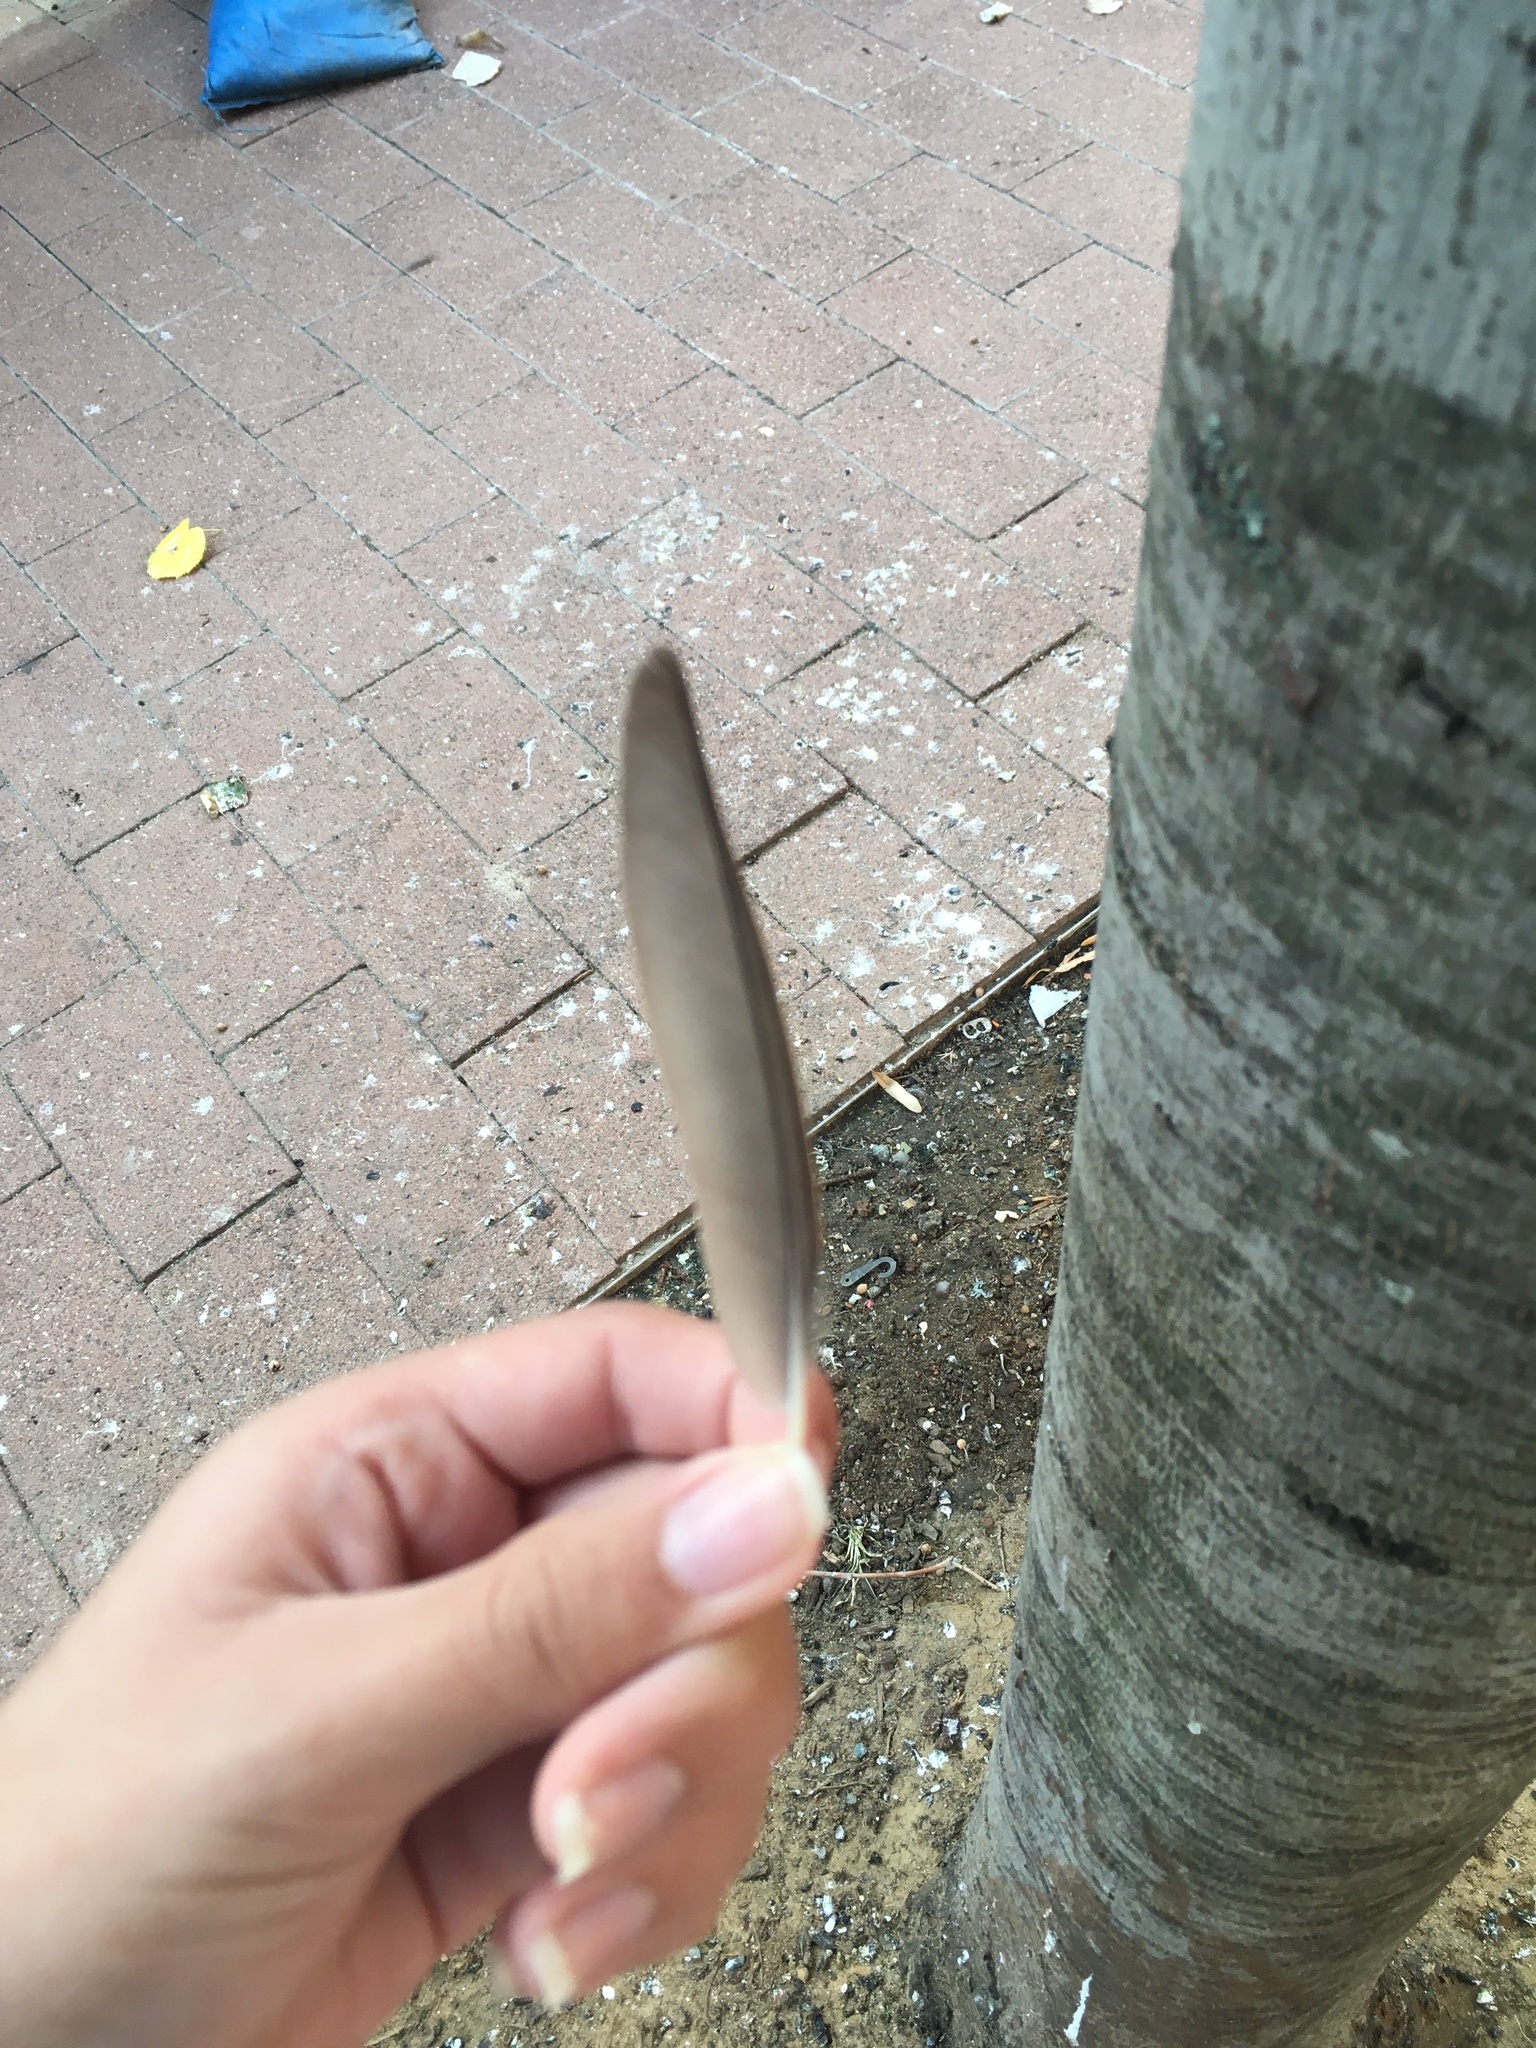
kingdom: Animalia
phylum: Chordata
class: Aves
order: Passeriformes
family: Sturnidae
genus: Sturnus
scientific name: Sturnus vulgaris
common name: Common starling
